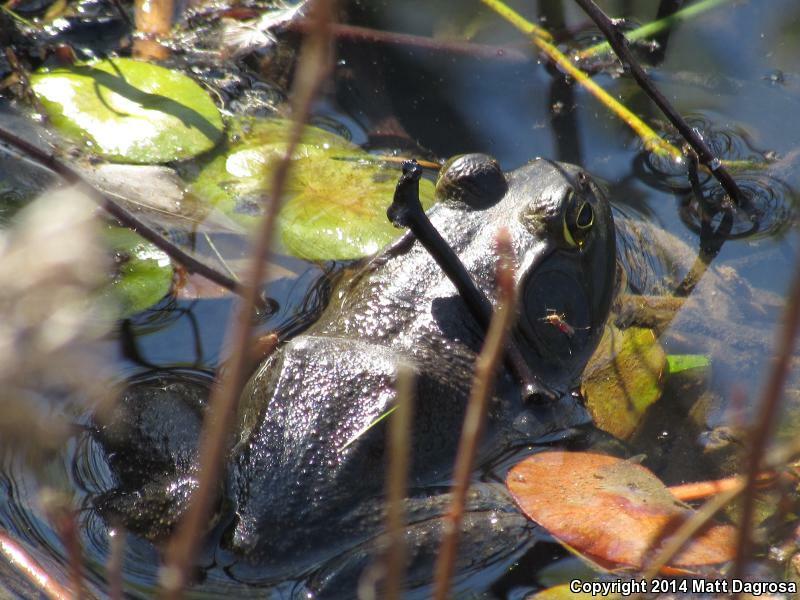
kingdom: Animalia
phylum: Chordata
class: Amphibia
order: Anura
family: Ranidae
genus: Lithobates
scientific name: Lithobates catesbeianus
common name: American bullfrog
